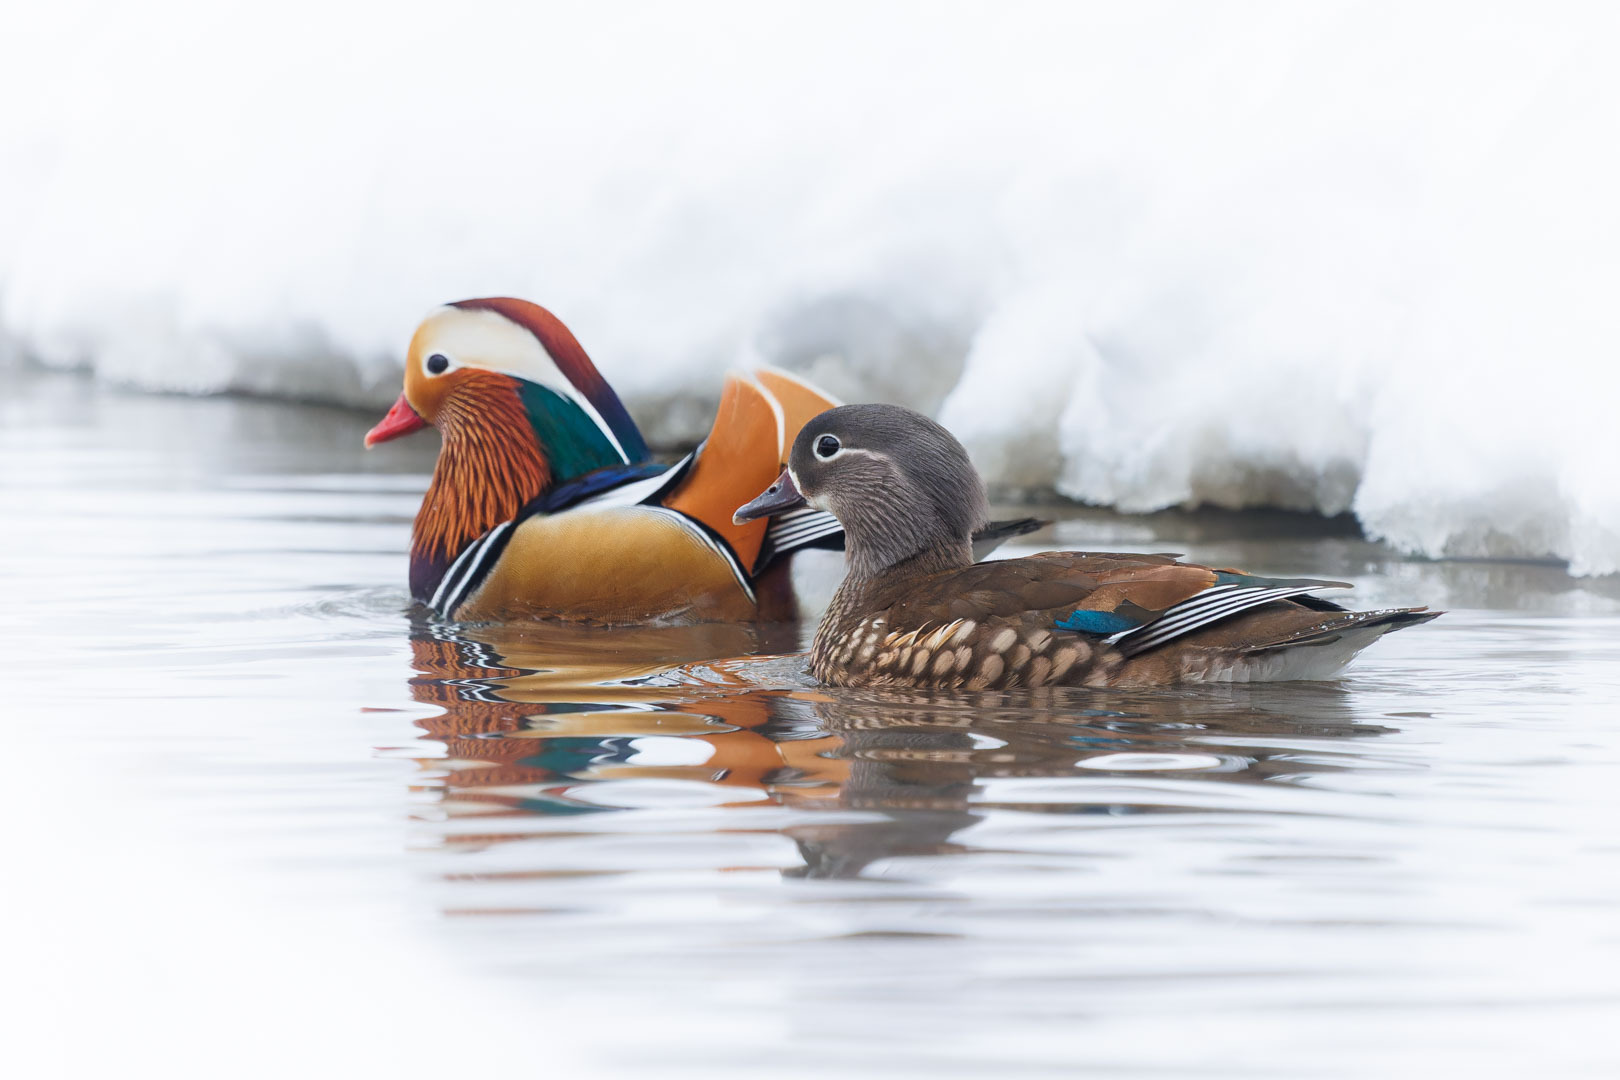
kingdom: Animalia
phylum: Chordata
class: Aves
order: Anseriformes
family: Anatidae
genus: Aix
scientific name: Aix galericulata
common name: Mandarin duck
